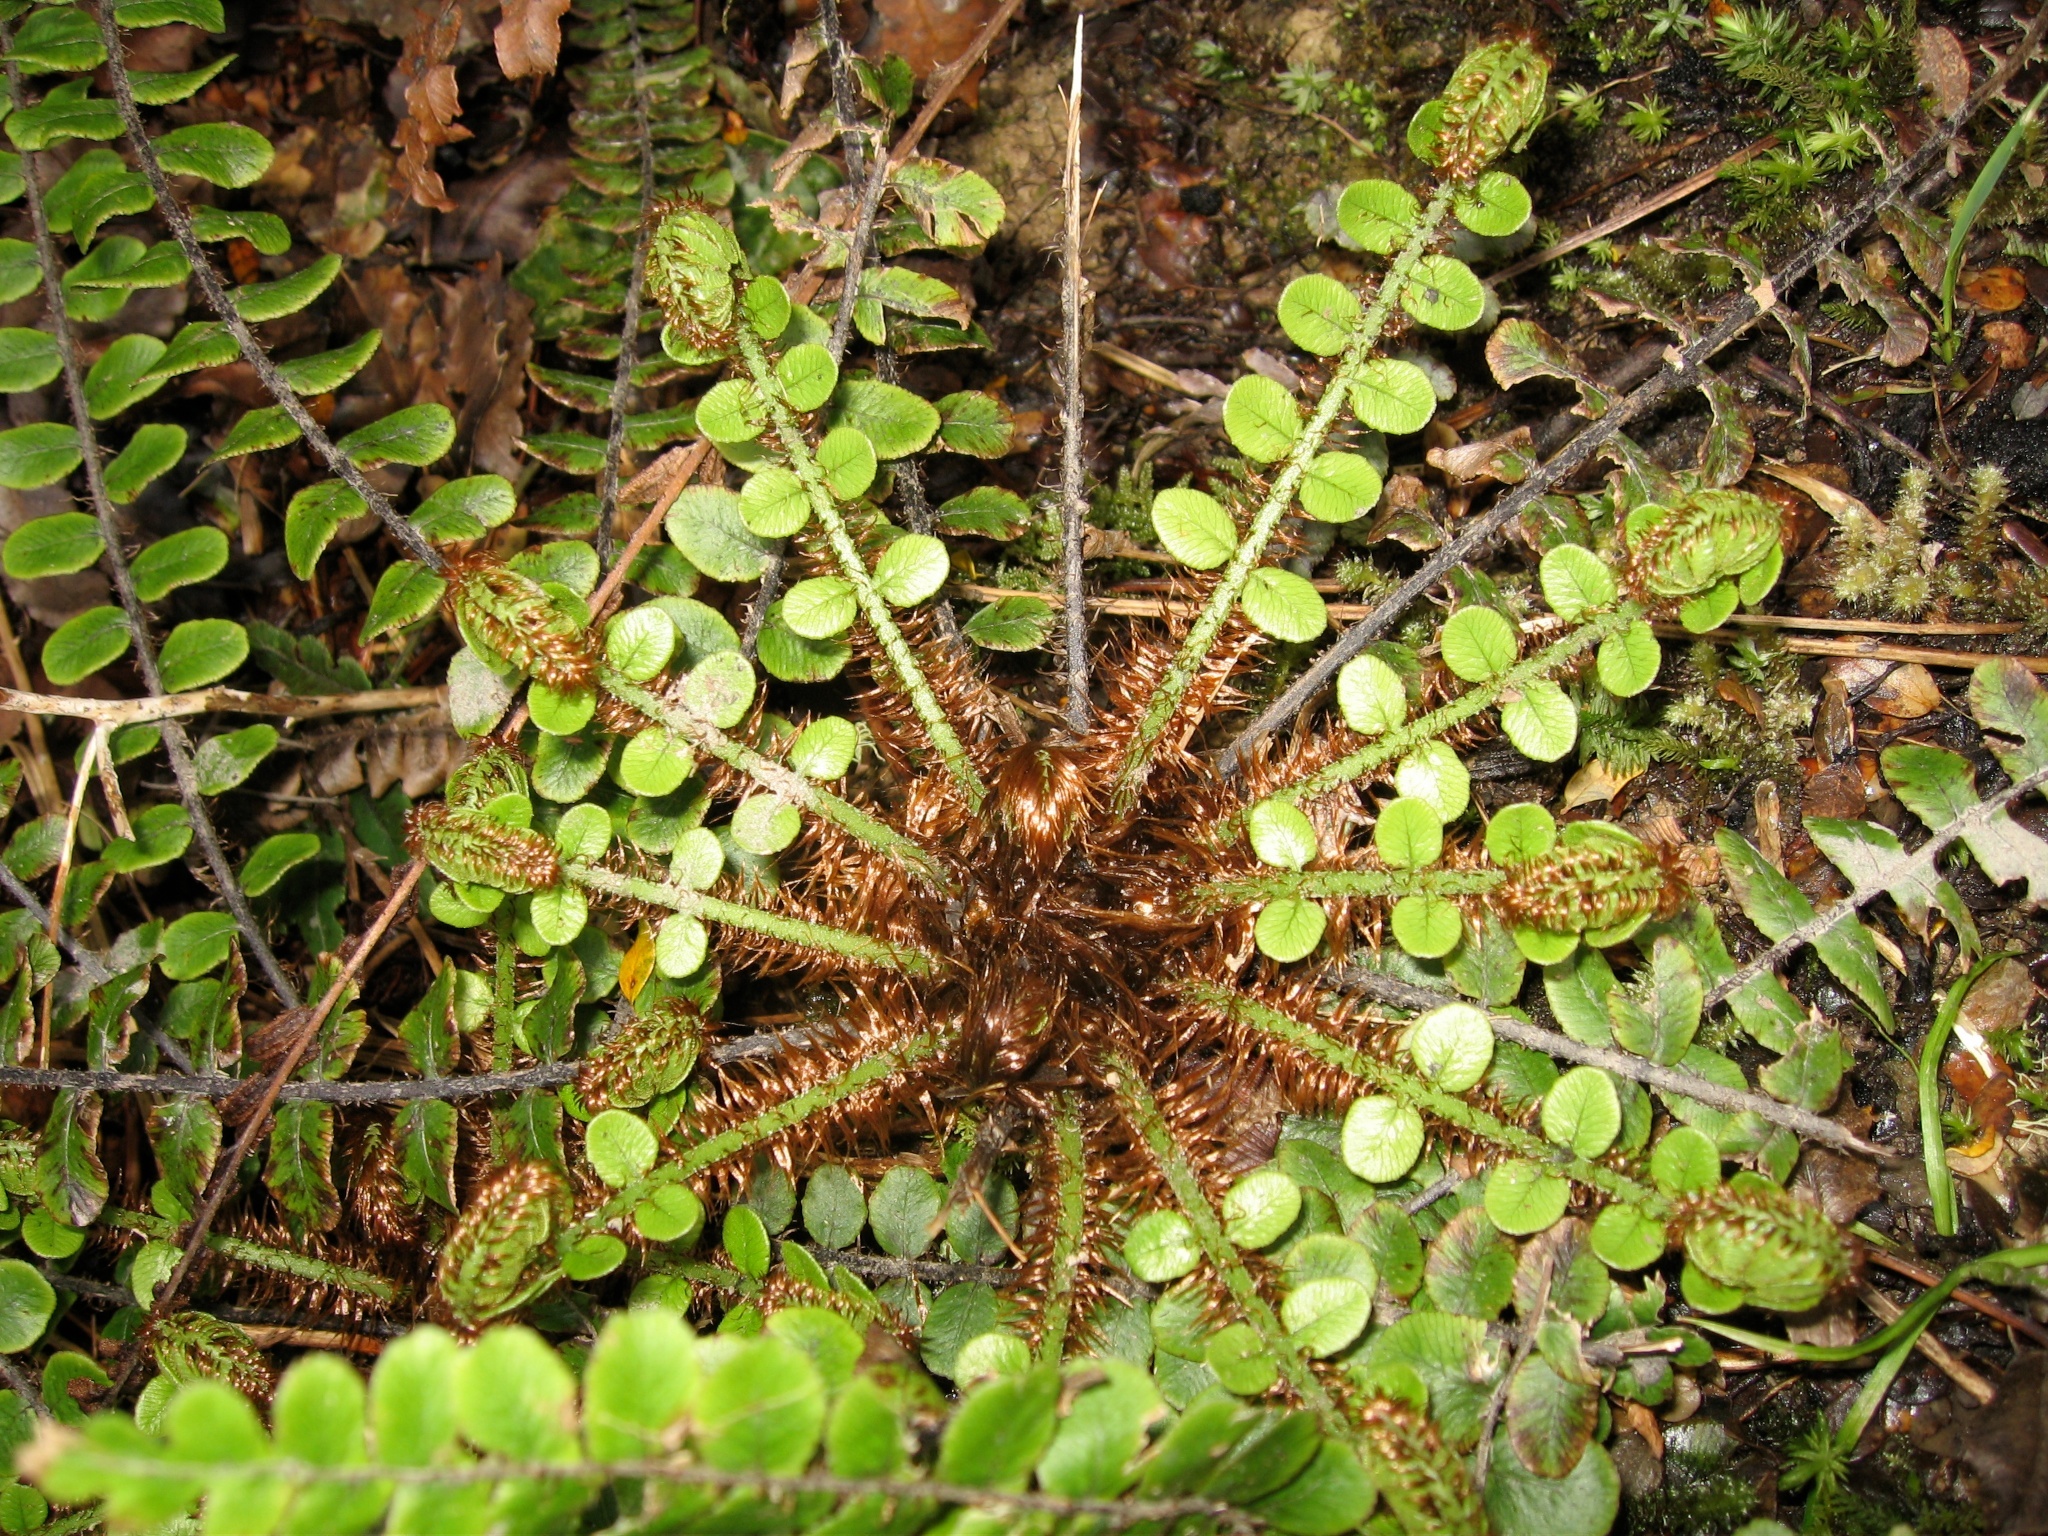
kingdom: Plantae
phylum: Tracheophyta
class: Polypodiopsida
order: Polypodiales
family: Blechnaceae
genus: Cranfillia
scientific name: Cranfillia fluviatilis
